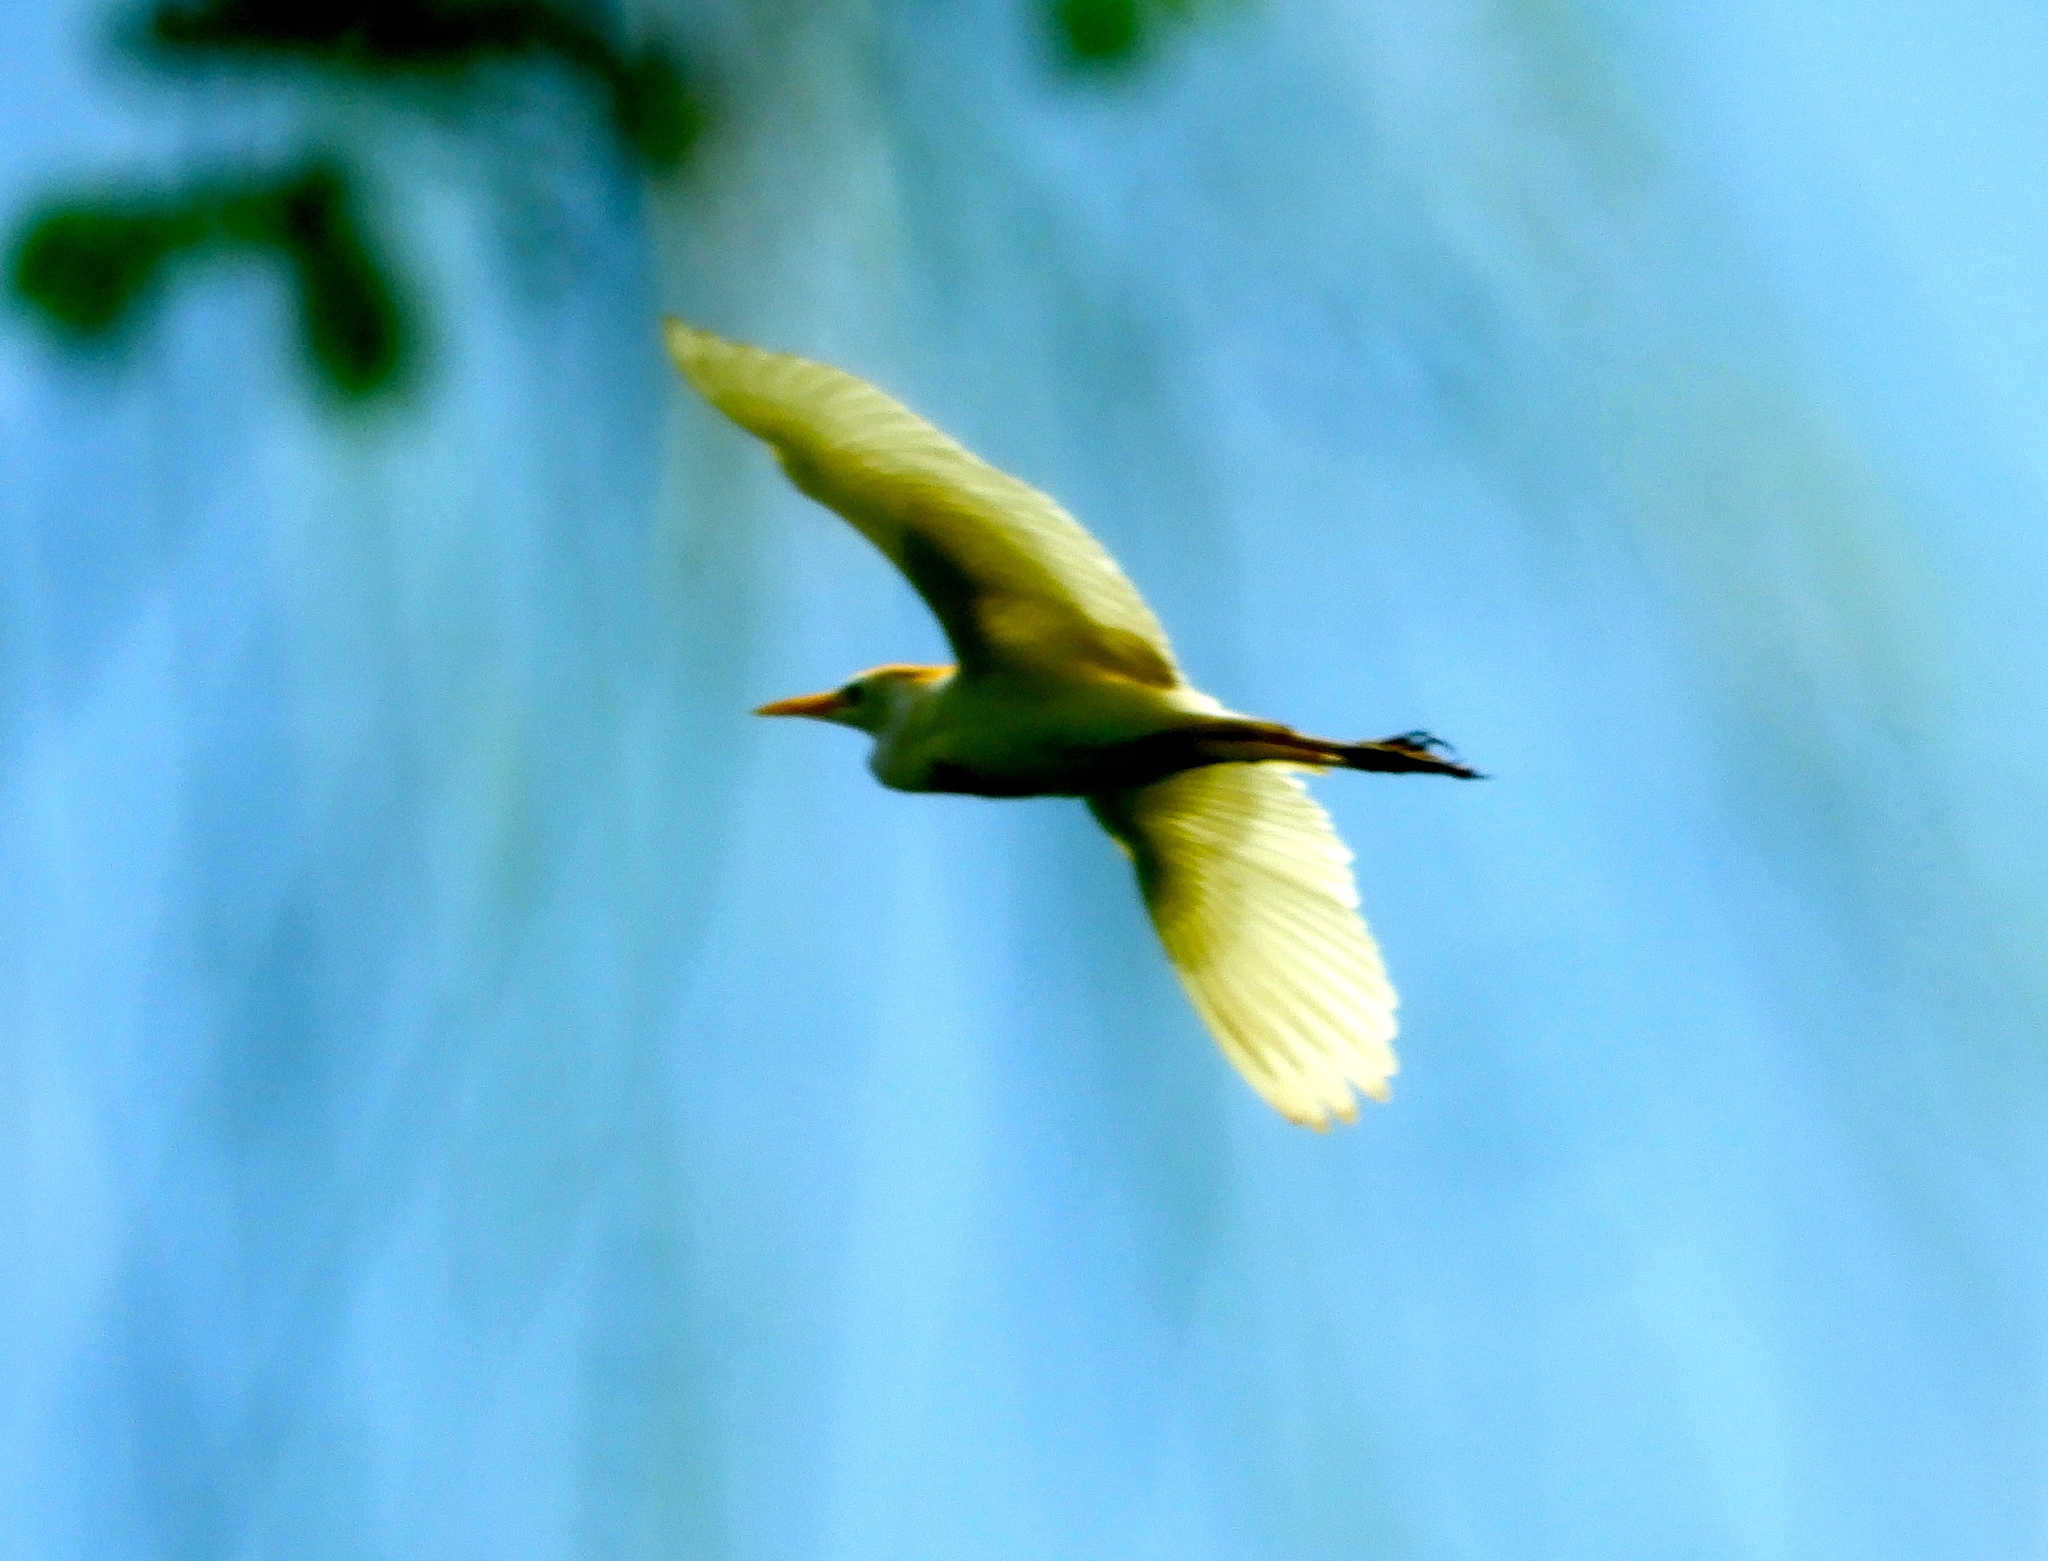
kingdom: Animalia
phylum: Chordata
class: Aves
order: Pelecaniformes
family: Ardeidae
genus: Bubulcus
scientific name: Bubulcus ibis
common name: Cattle egret
